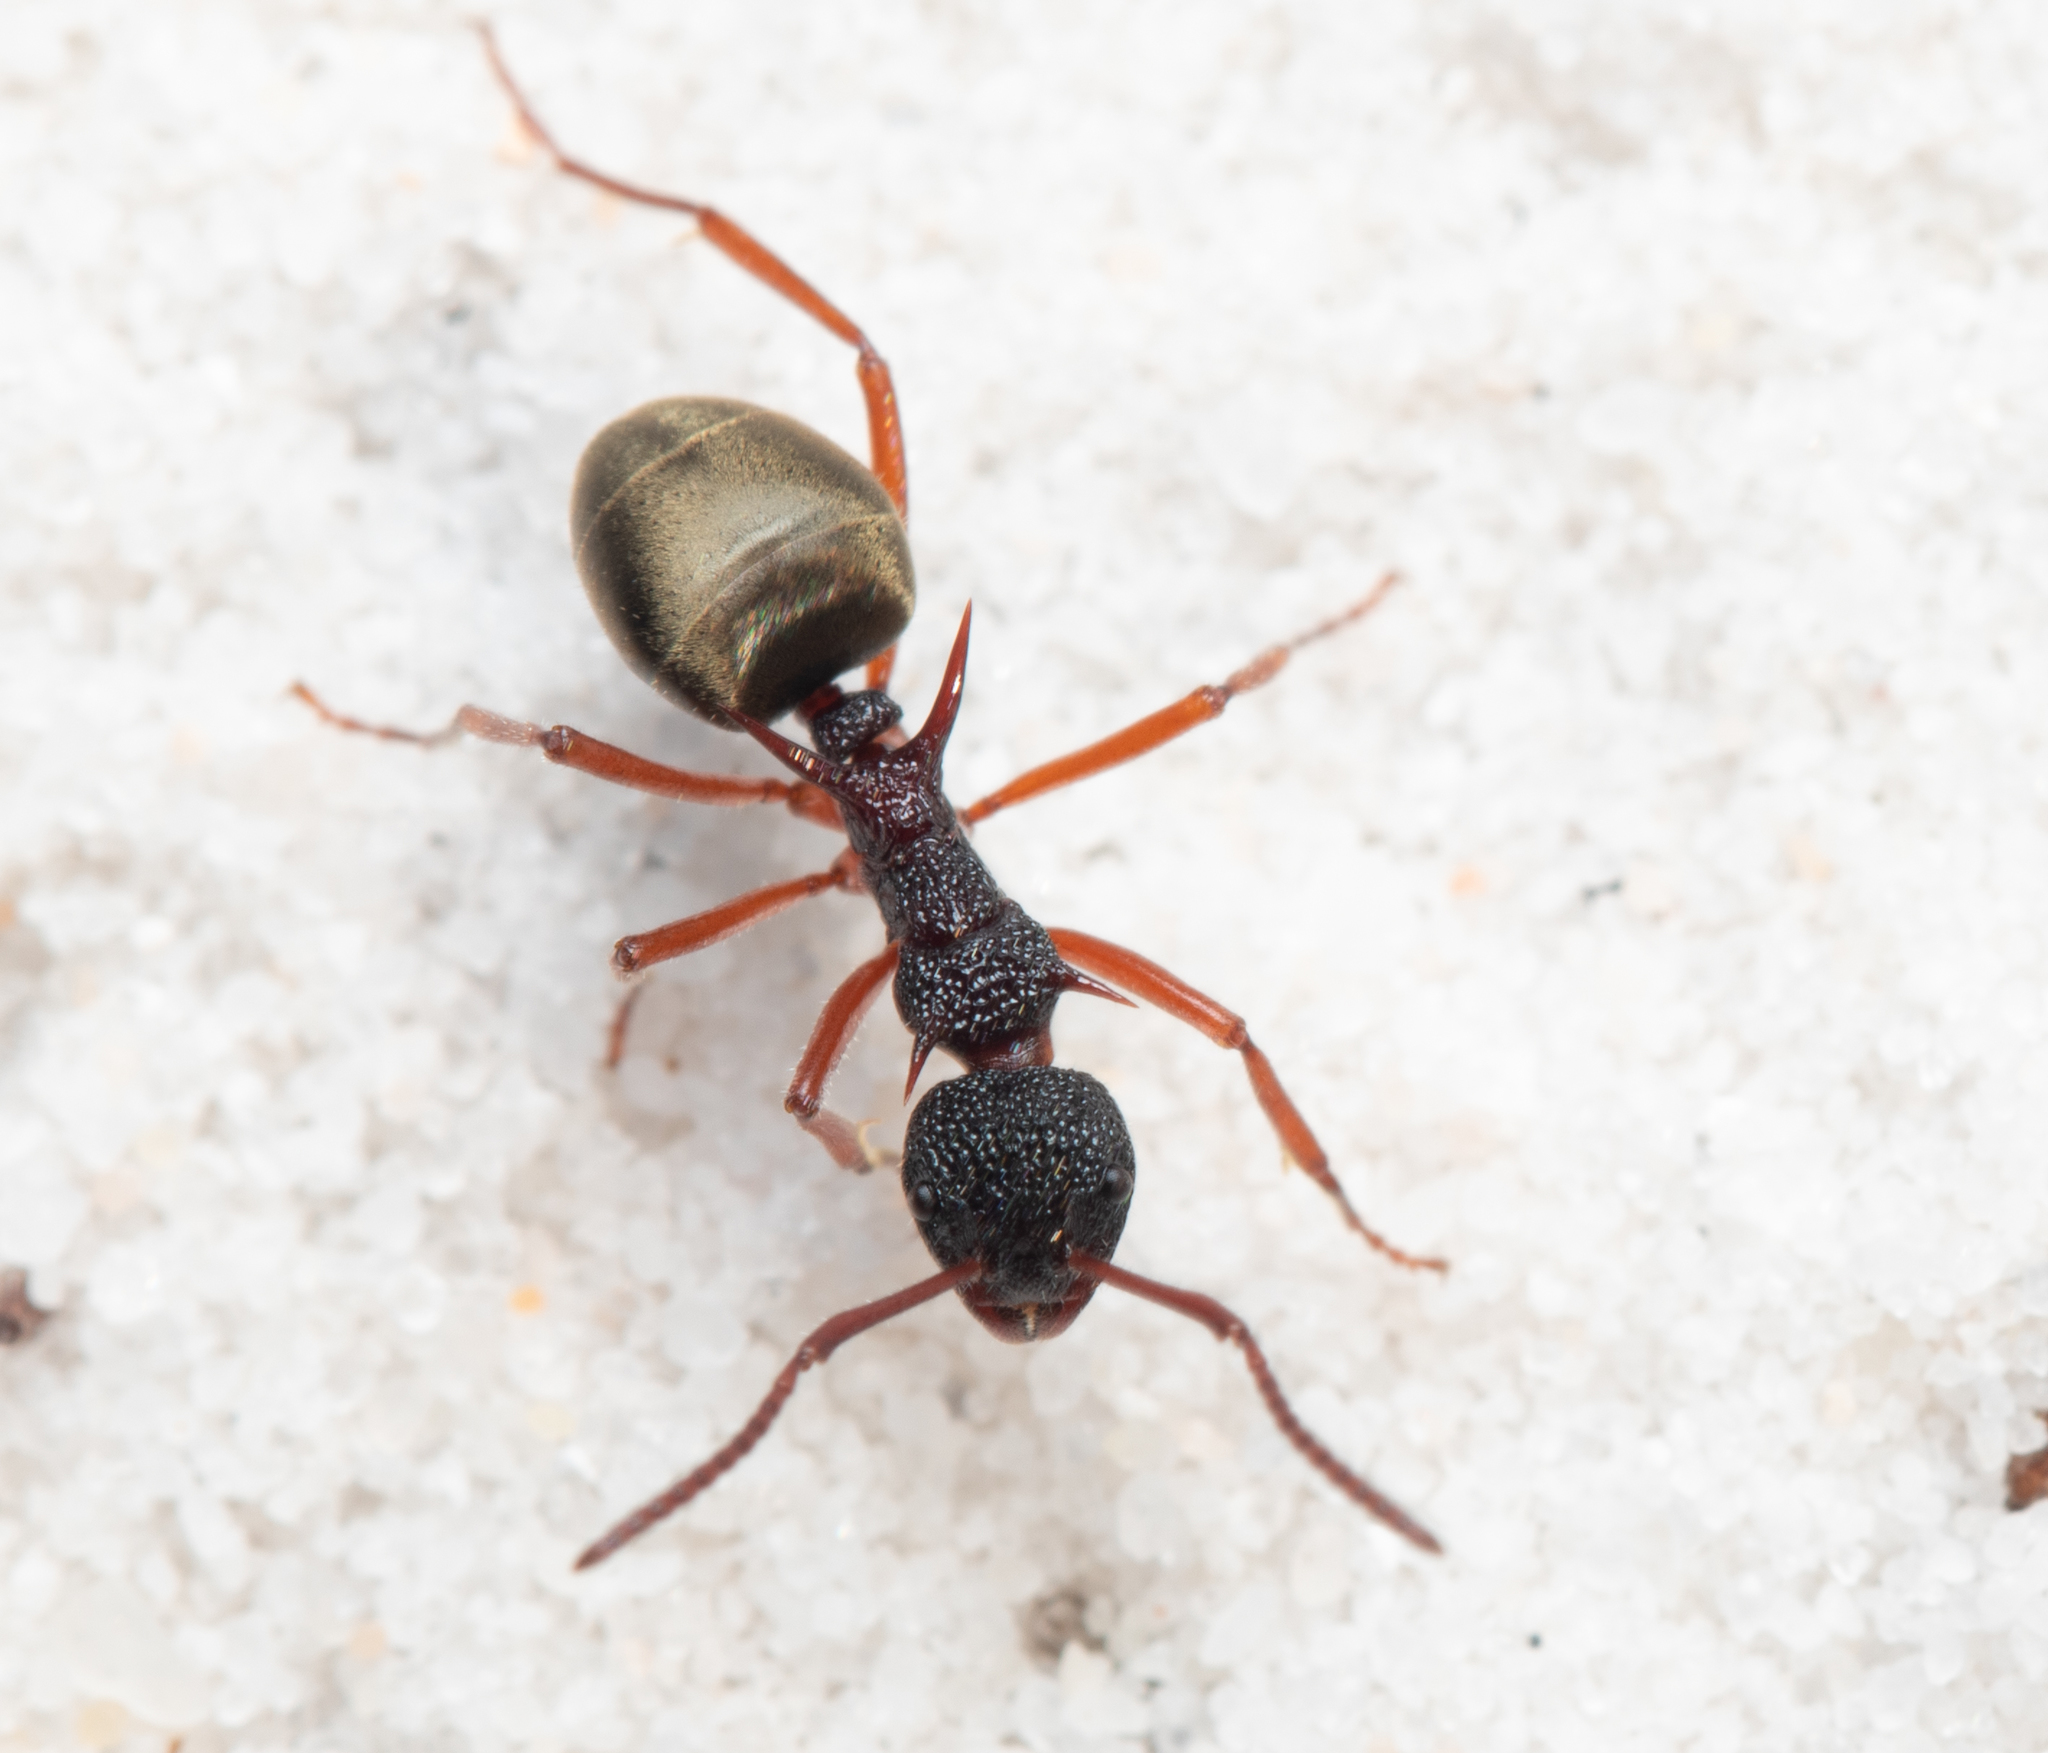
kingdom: Animalia
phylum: Arthropoda
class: Insecta
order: Hymenoptera
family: Formicidae
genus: Dolichoderus
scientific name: Dolichoderus dentatus
